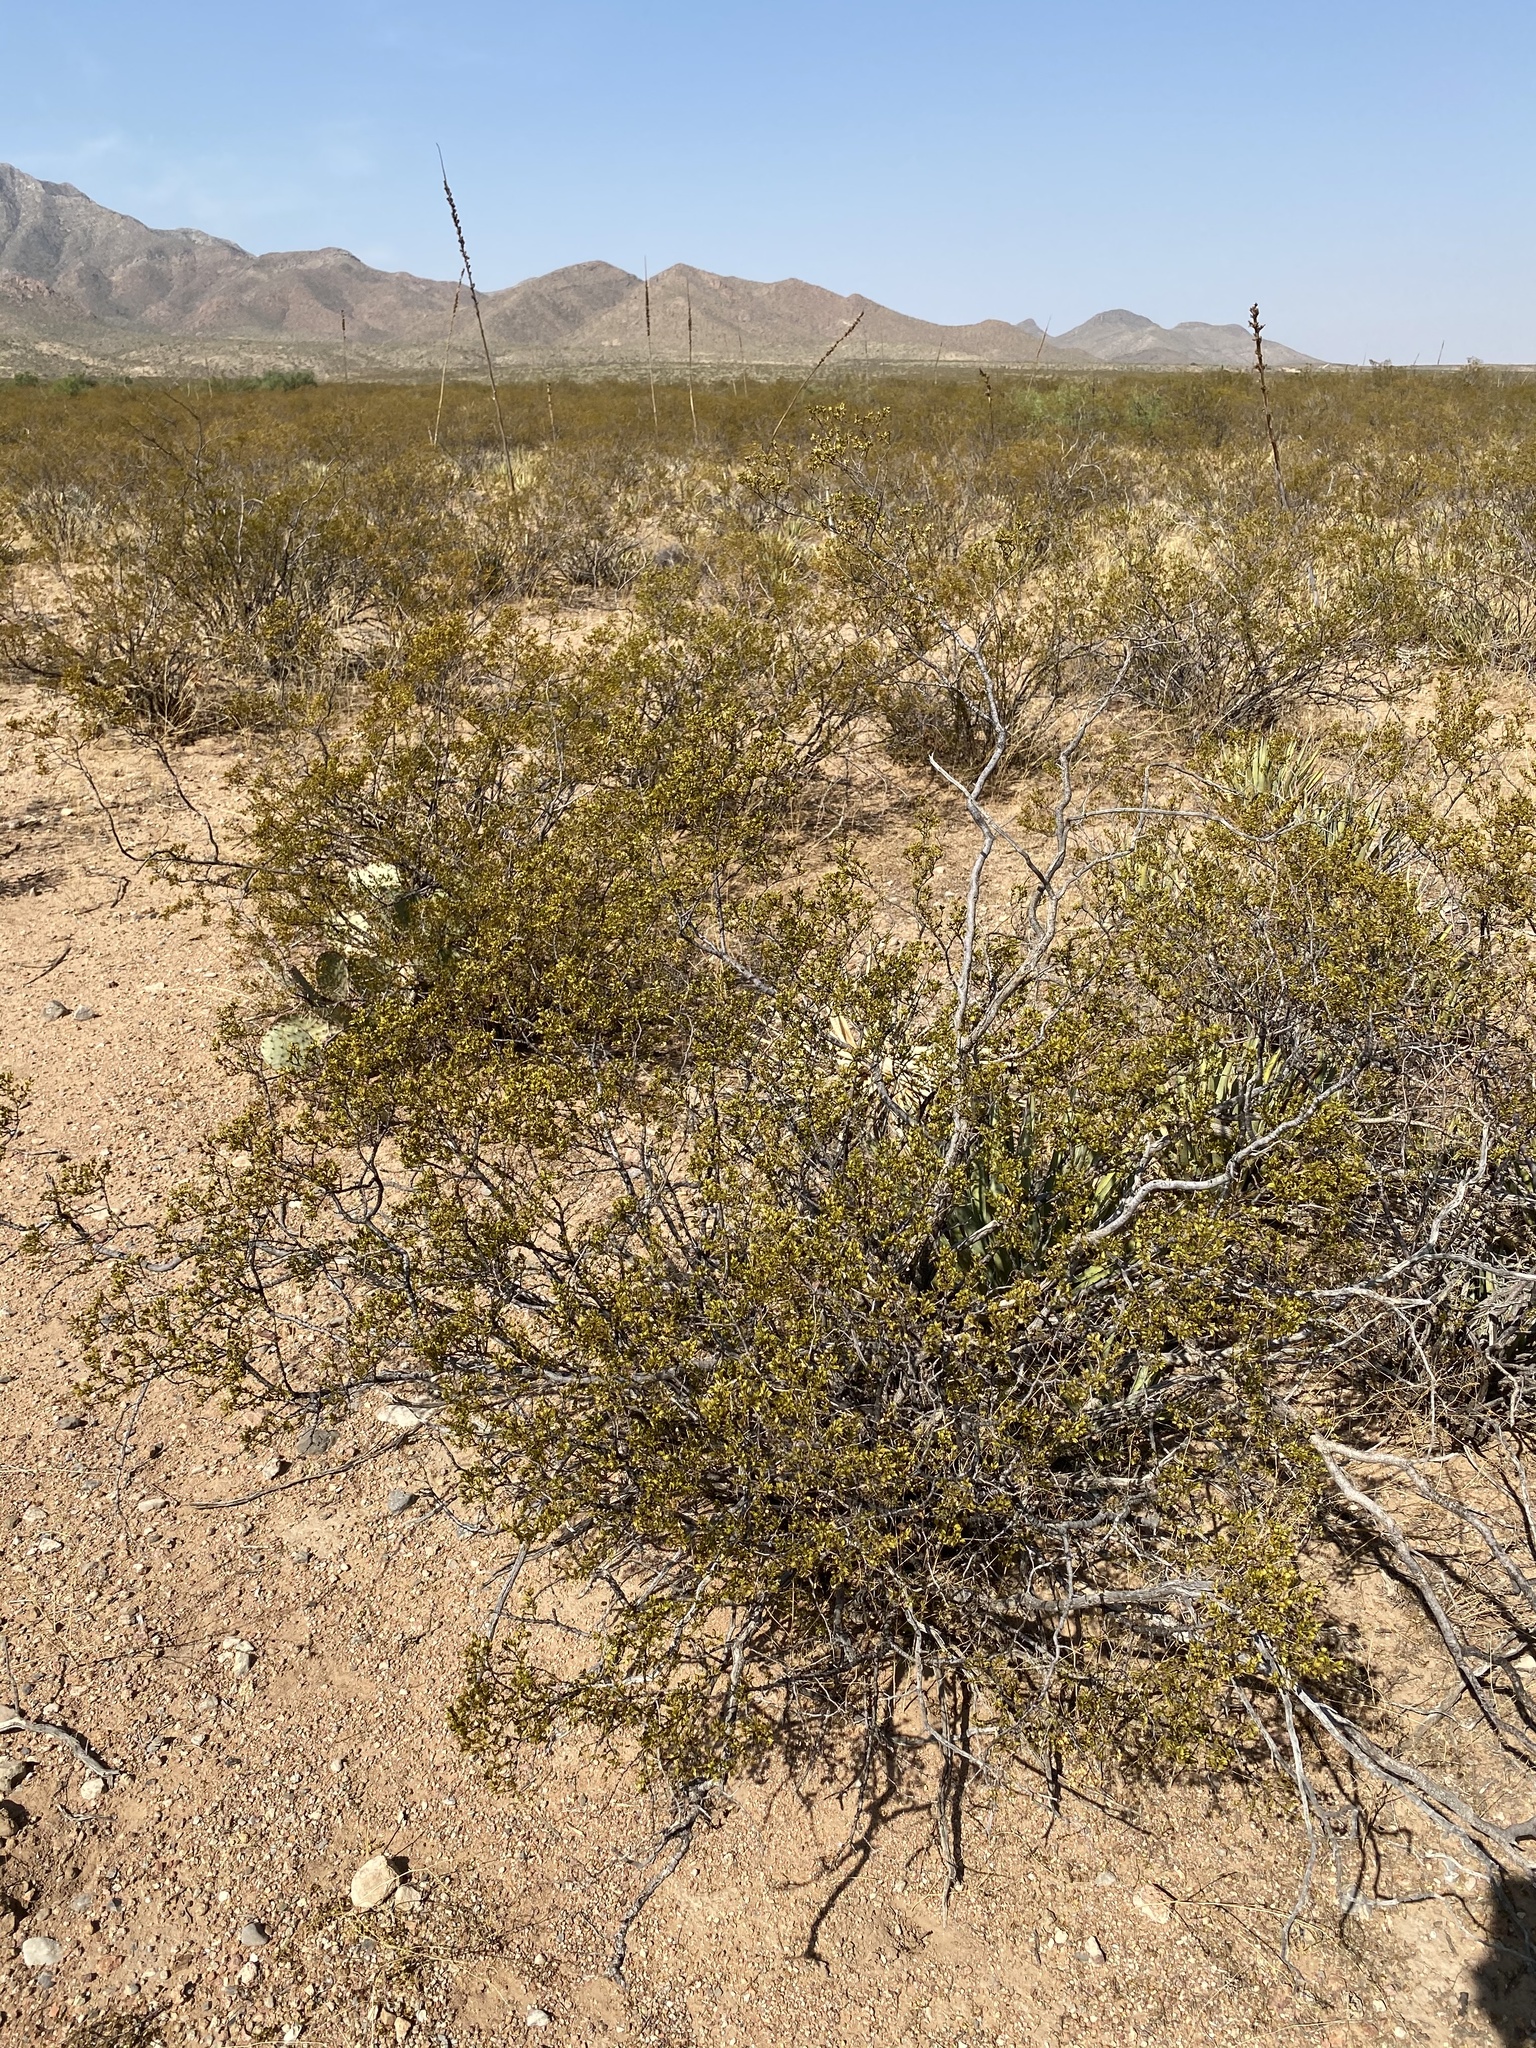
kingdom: Plantae
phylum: Tracheophyta
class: Magnoliopsida
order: Zygophyllales
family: Zygophyllaceae
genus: Larrea
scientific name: Larrea tridentata
